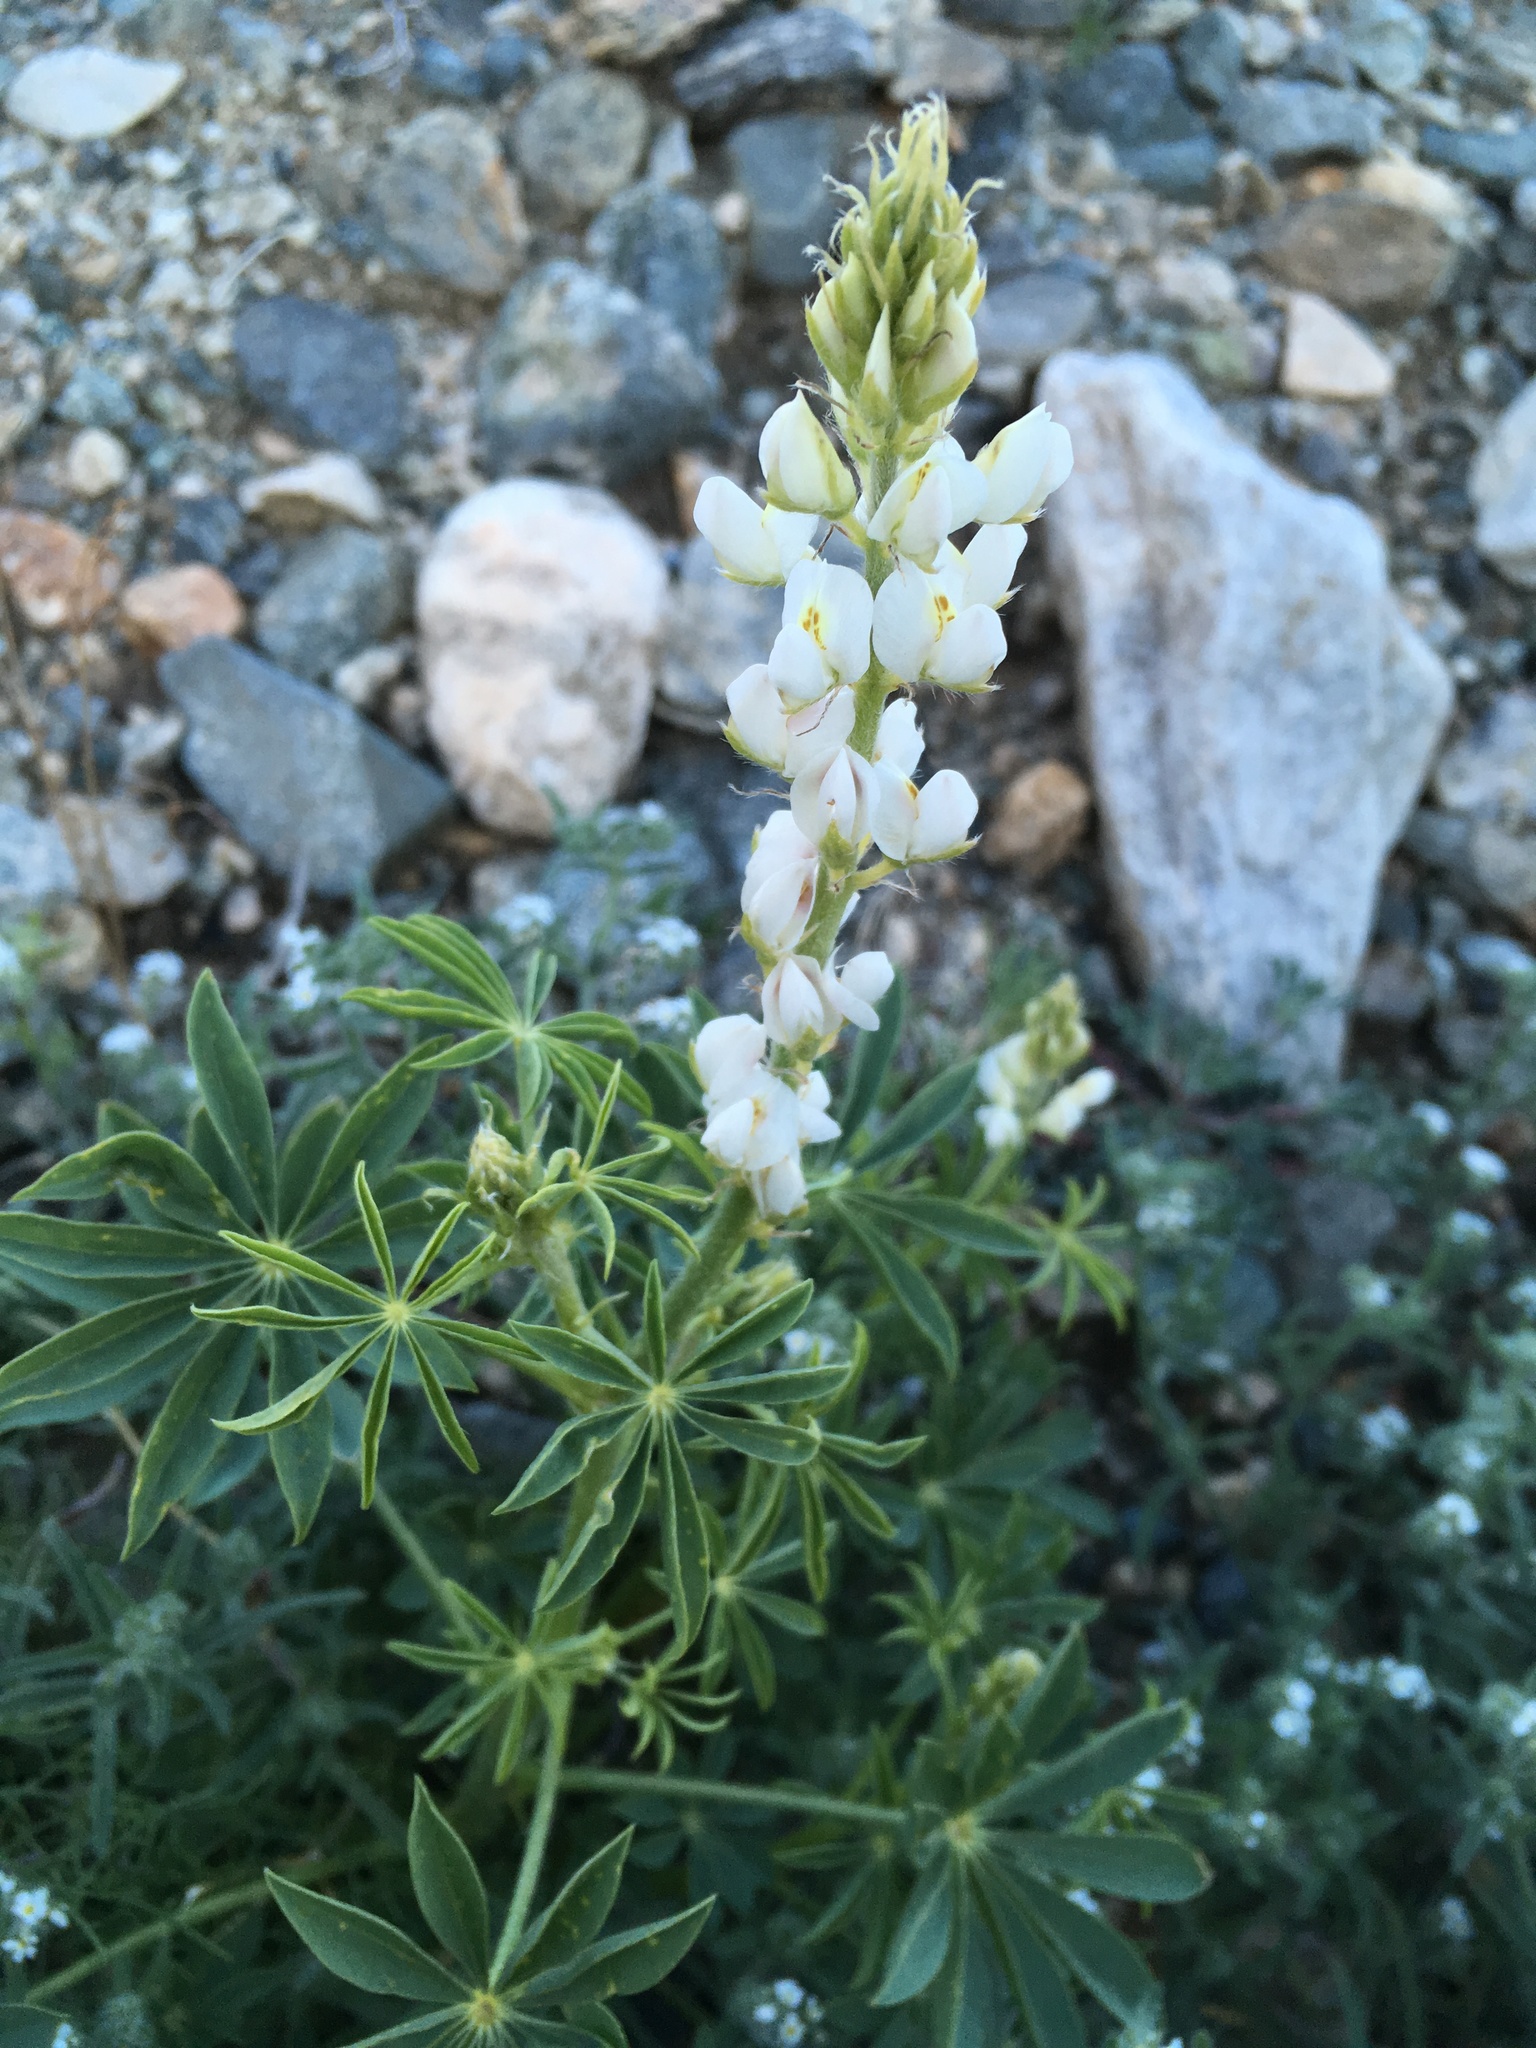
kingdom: Plantae
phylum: Tracheophyta
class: Magnoliopsida
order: Fabales
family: Fabaceae
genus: Lupinus
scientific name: Lupinus arizonicus
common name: Arizona lupine
